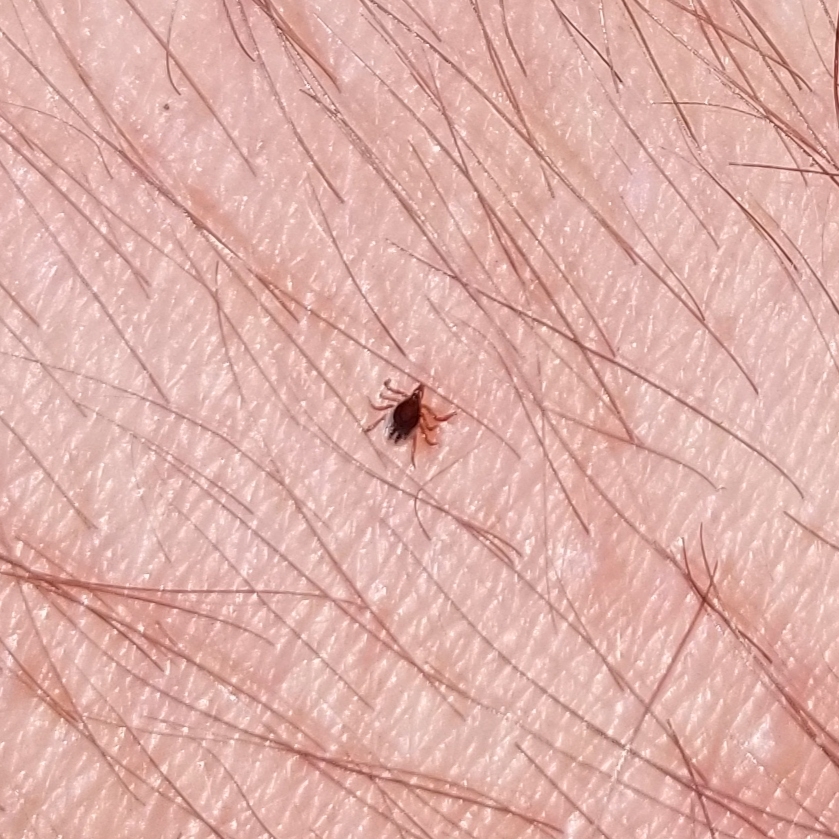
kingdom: Animalia
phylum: Arthropoda
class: Arachnida
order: Ixodida
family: Ixodidae
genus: Ixodes
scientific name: Ixodes scapularis
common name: Black legged tick
